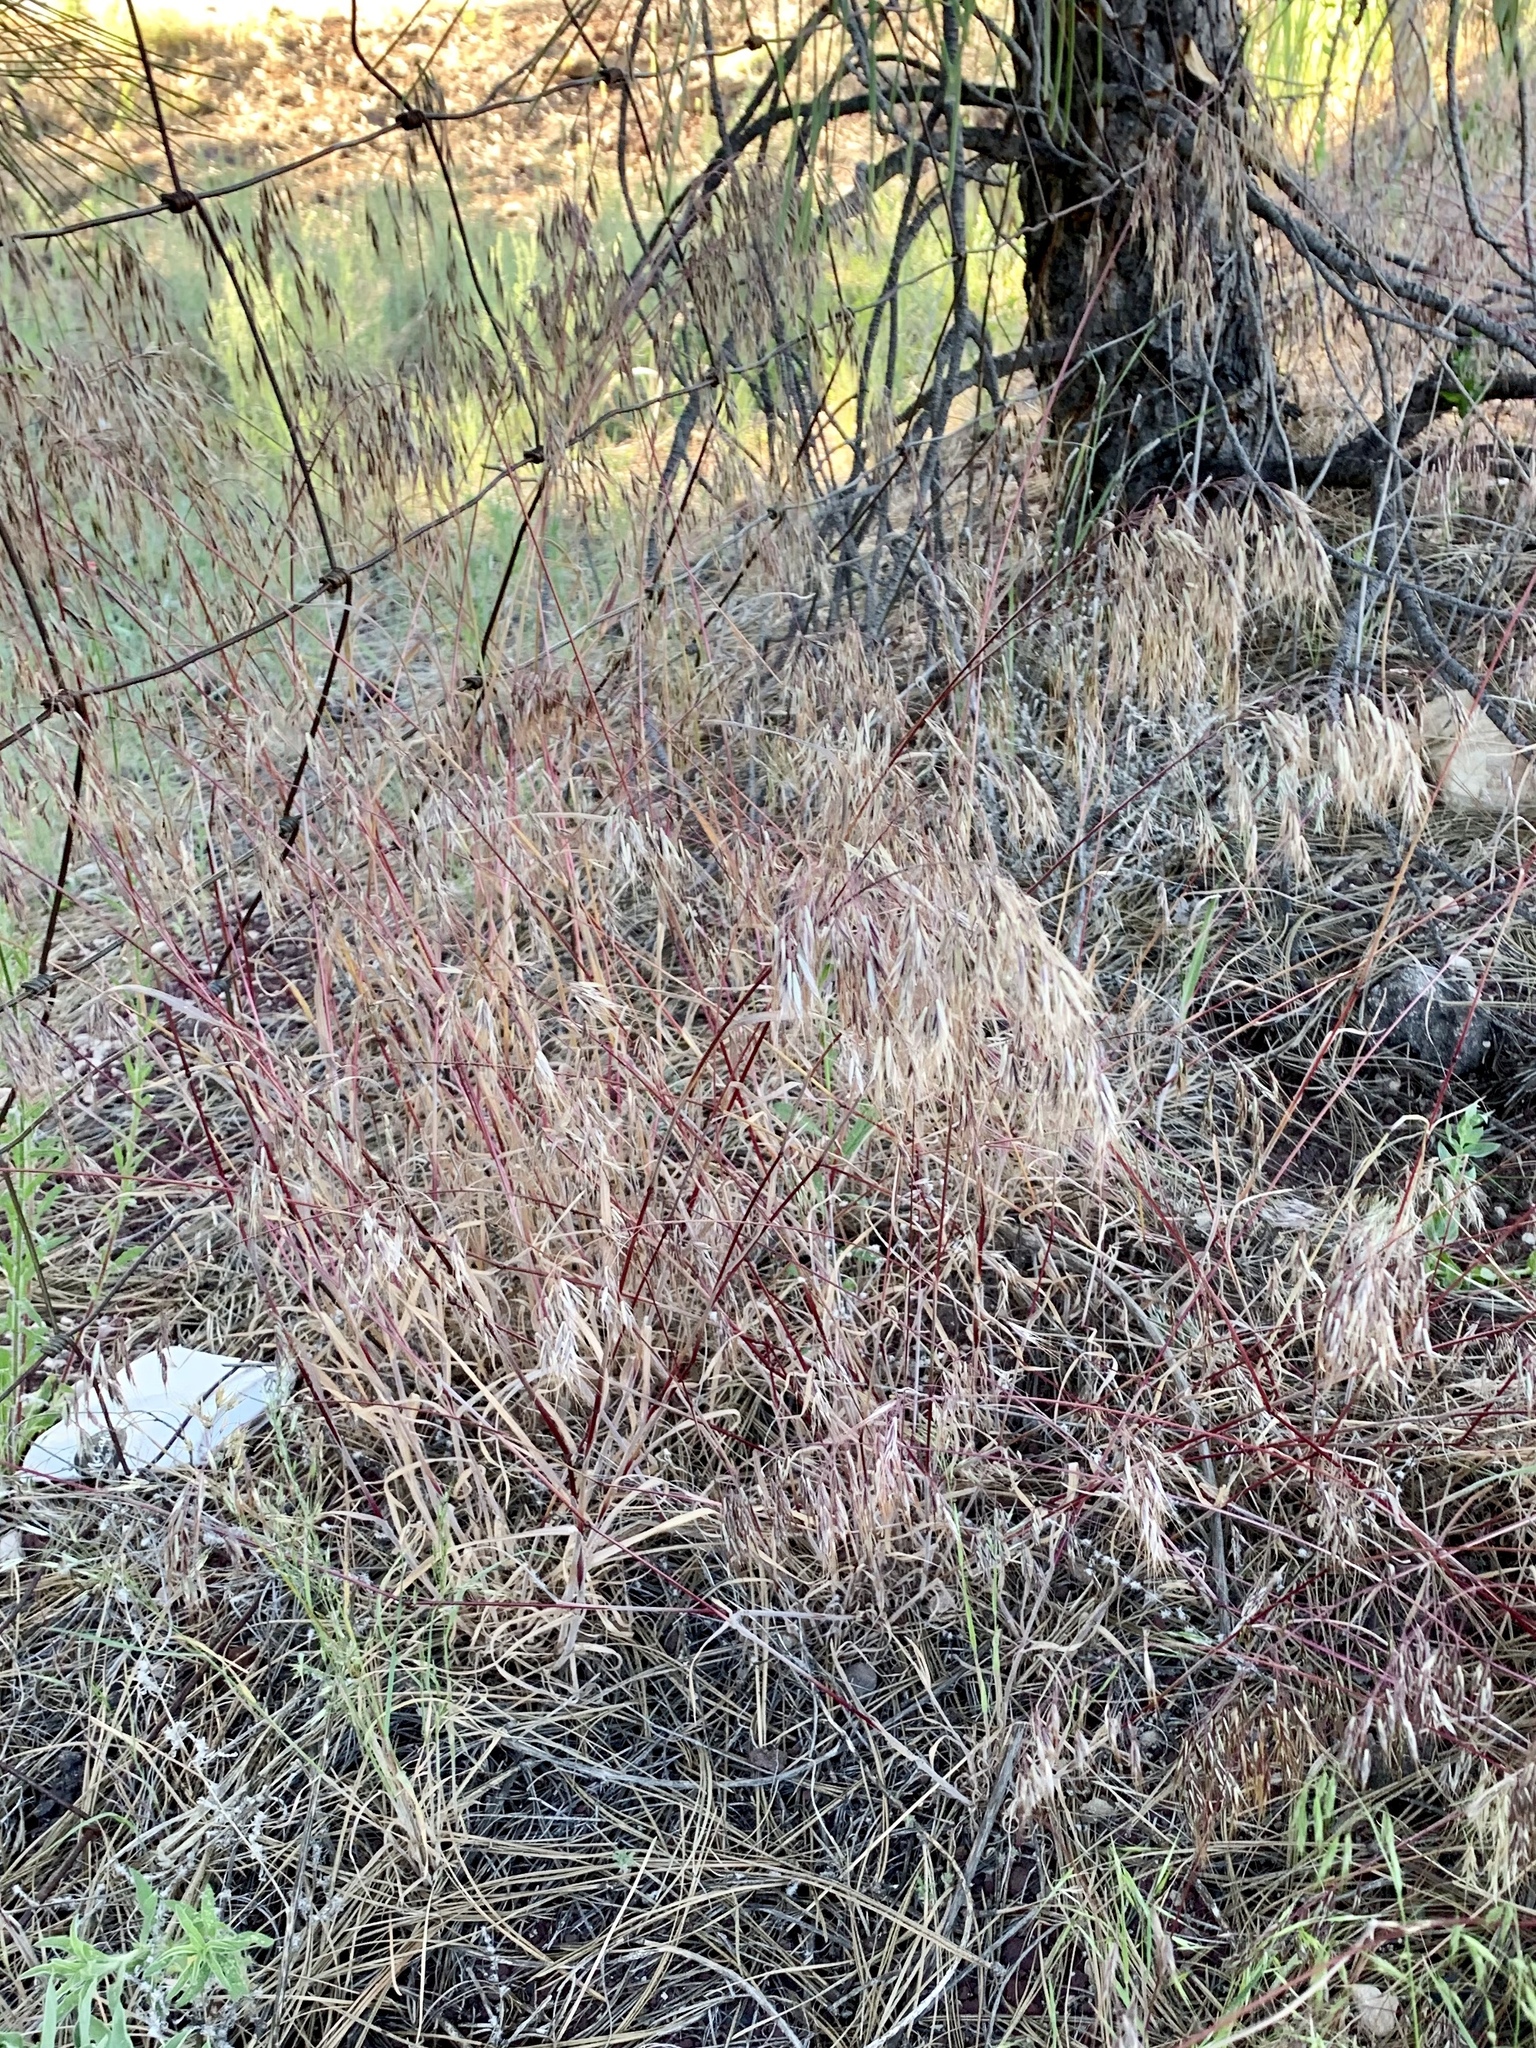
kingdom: Plantae
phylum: Tracheophyta
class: Liliopsida
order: Poales
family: Poaceae
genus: Bromus
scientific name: Bromus tectorum
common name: Cheatgrass
